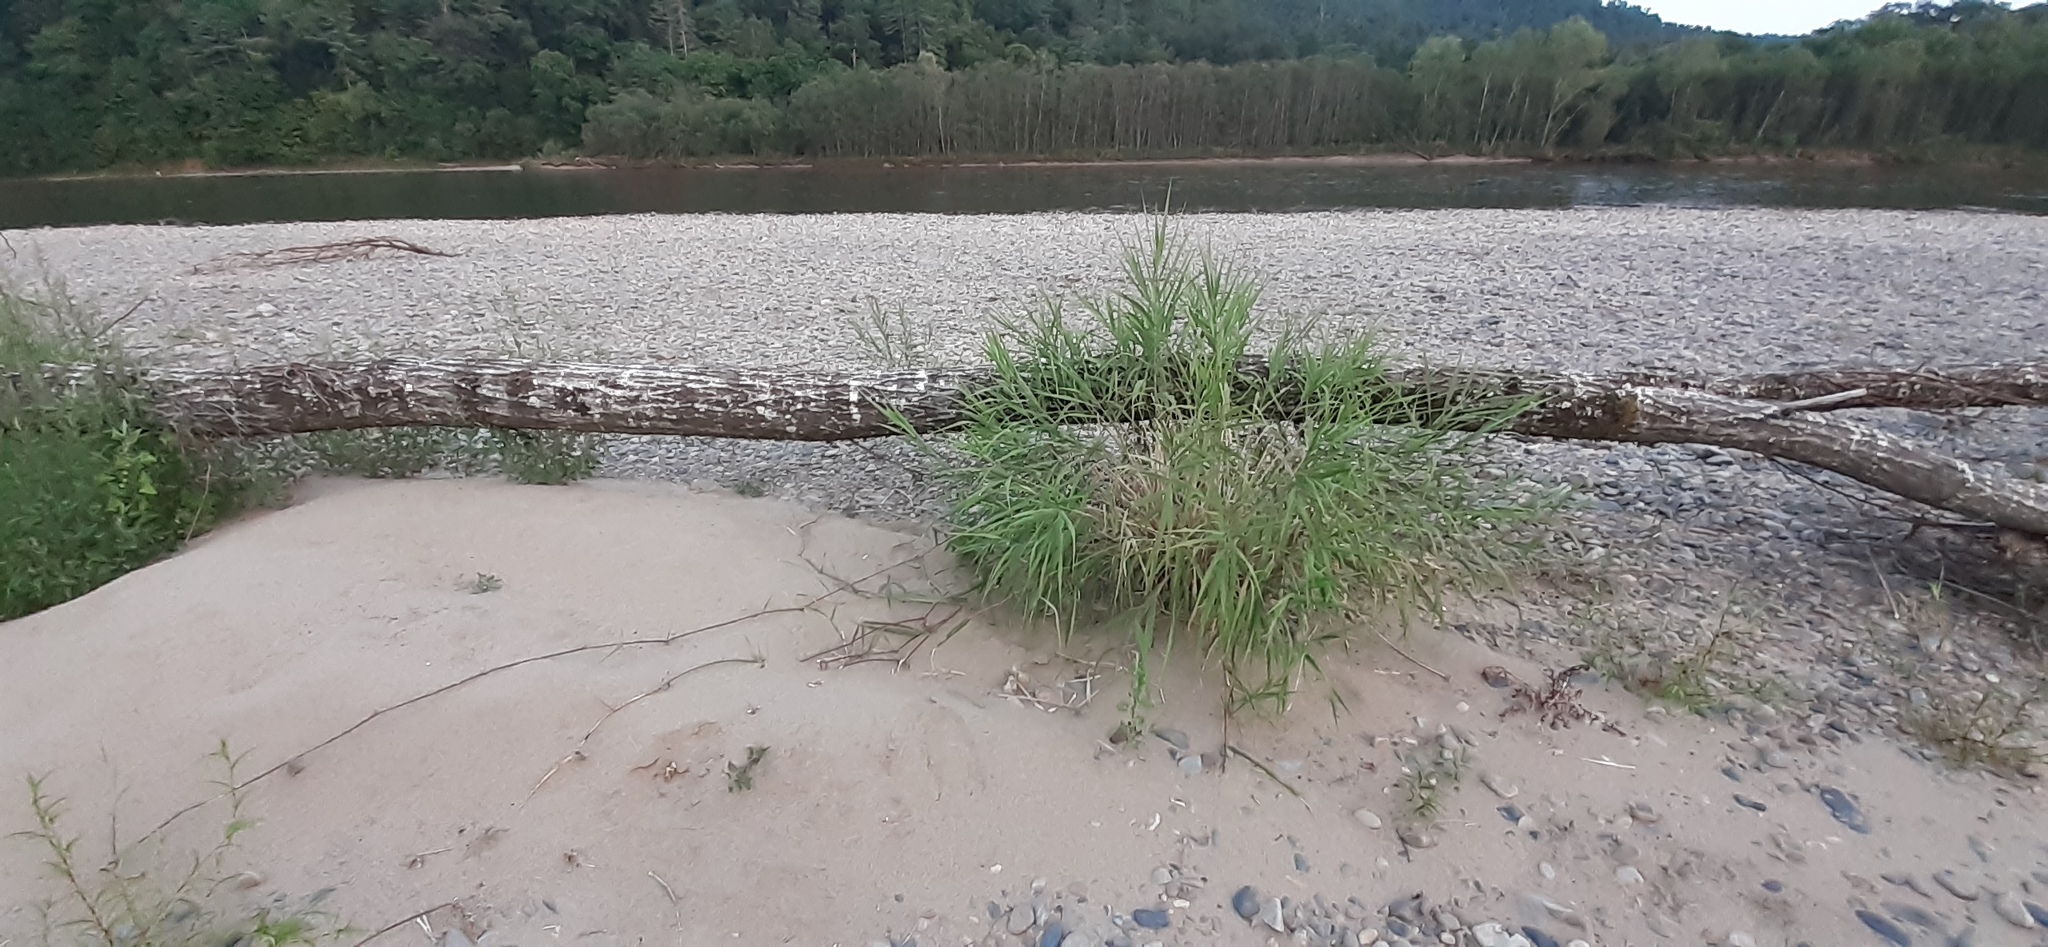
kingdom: Plantae
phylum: Tracheophyta
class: Liliopsida
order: Poales
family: Poaceae
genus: Phragmites
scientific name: Phragmites japonicus
